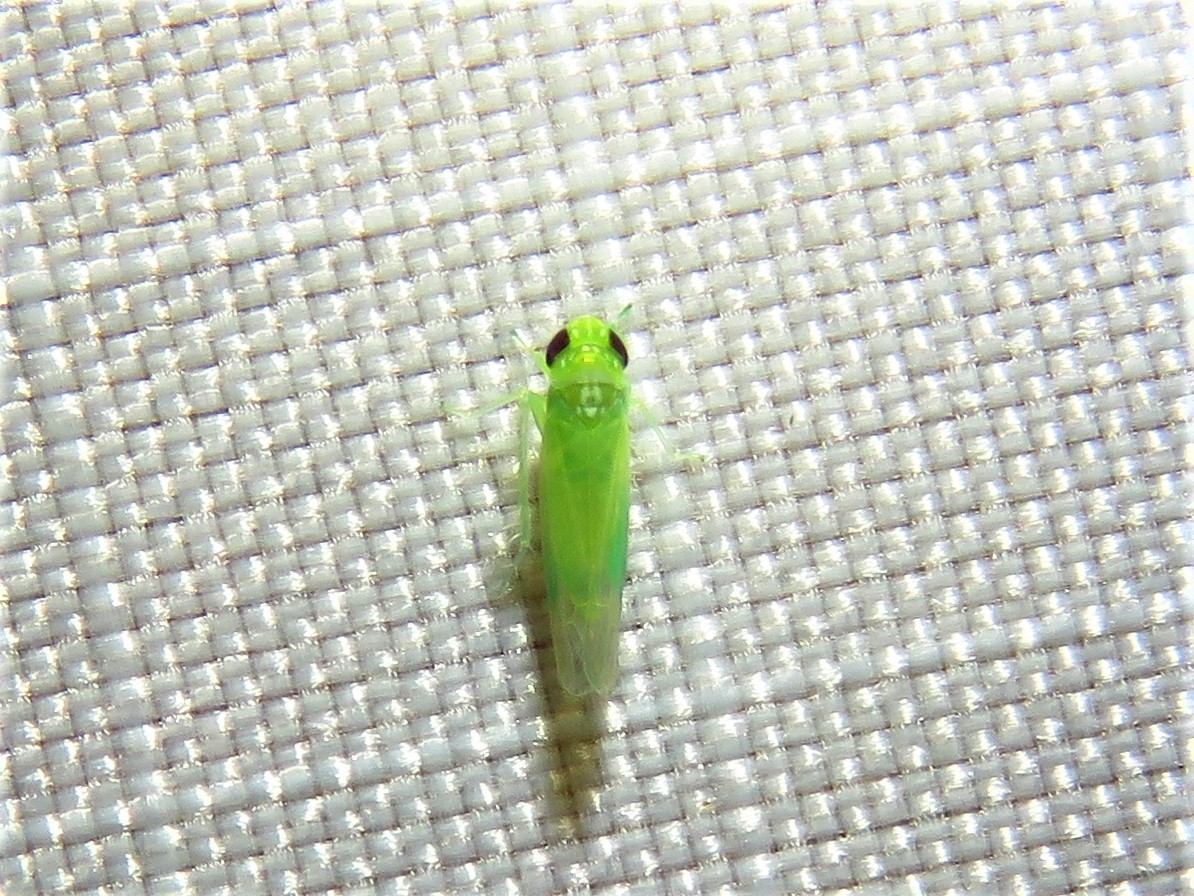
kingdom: Animalia
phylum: Arthropoda
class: Insecta
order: Hemiptera
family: Cicadellidae
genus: Empoasca
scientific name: Empoasca fabae
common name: Potato leafhopper
